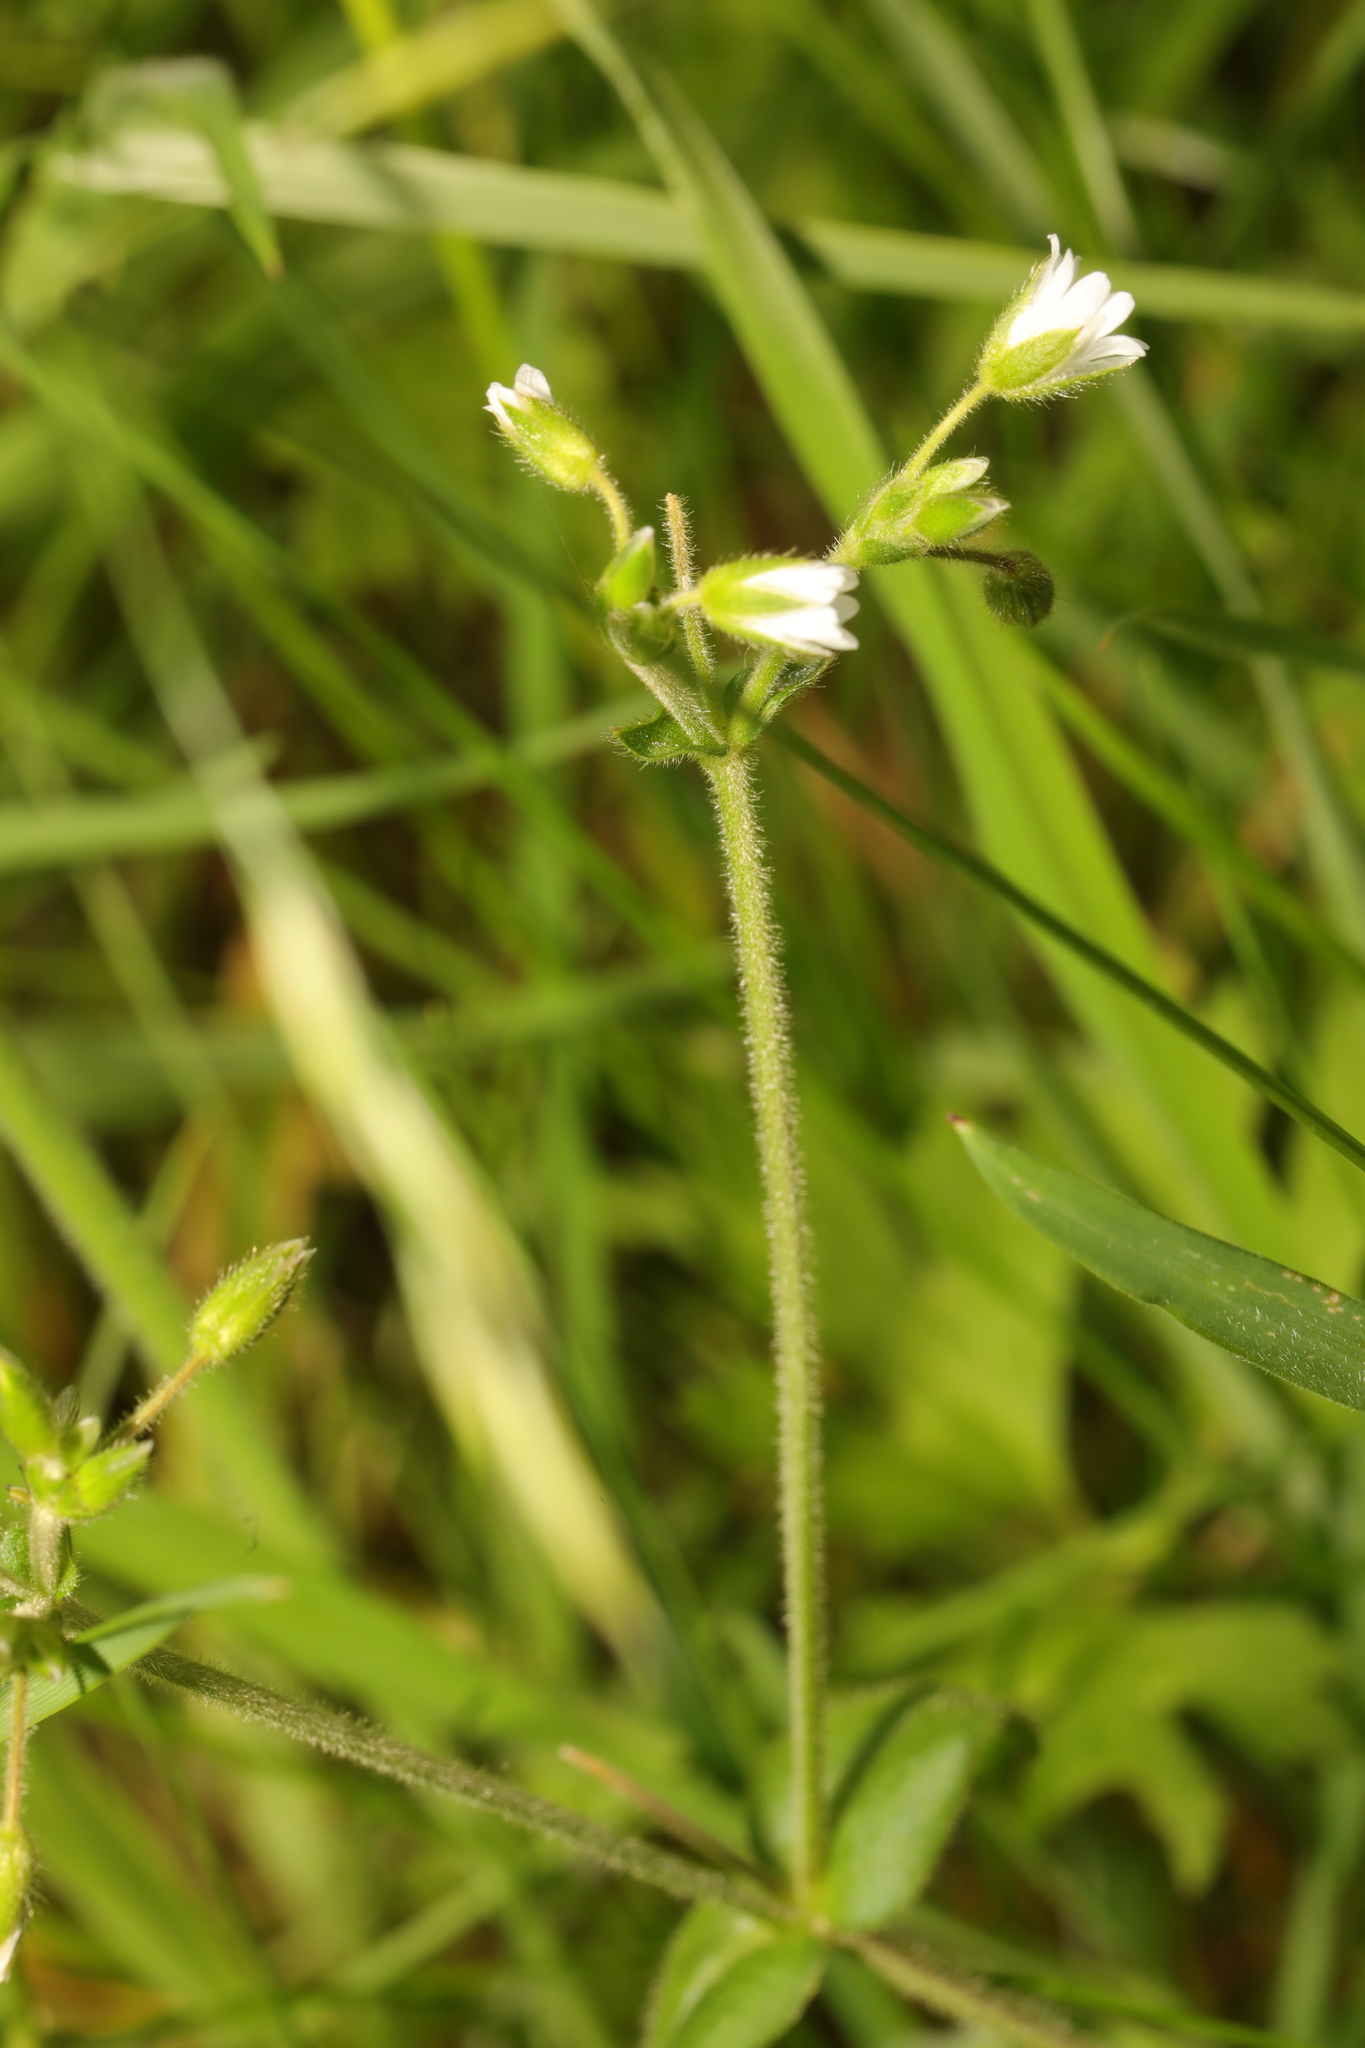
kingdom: Plantae
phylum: Tracheophyta
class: Magnoliopsida
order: Caryophyllales
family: Caryophyllaceae
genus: Cerastium
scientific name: Cerastium fontanum
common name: Common mouse-ear
